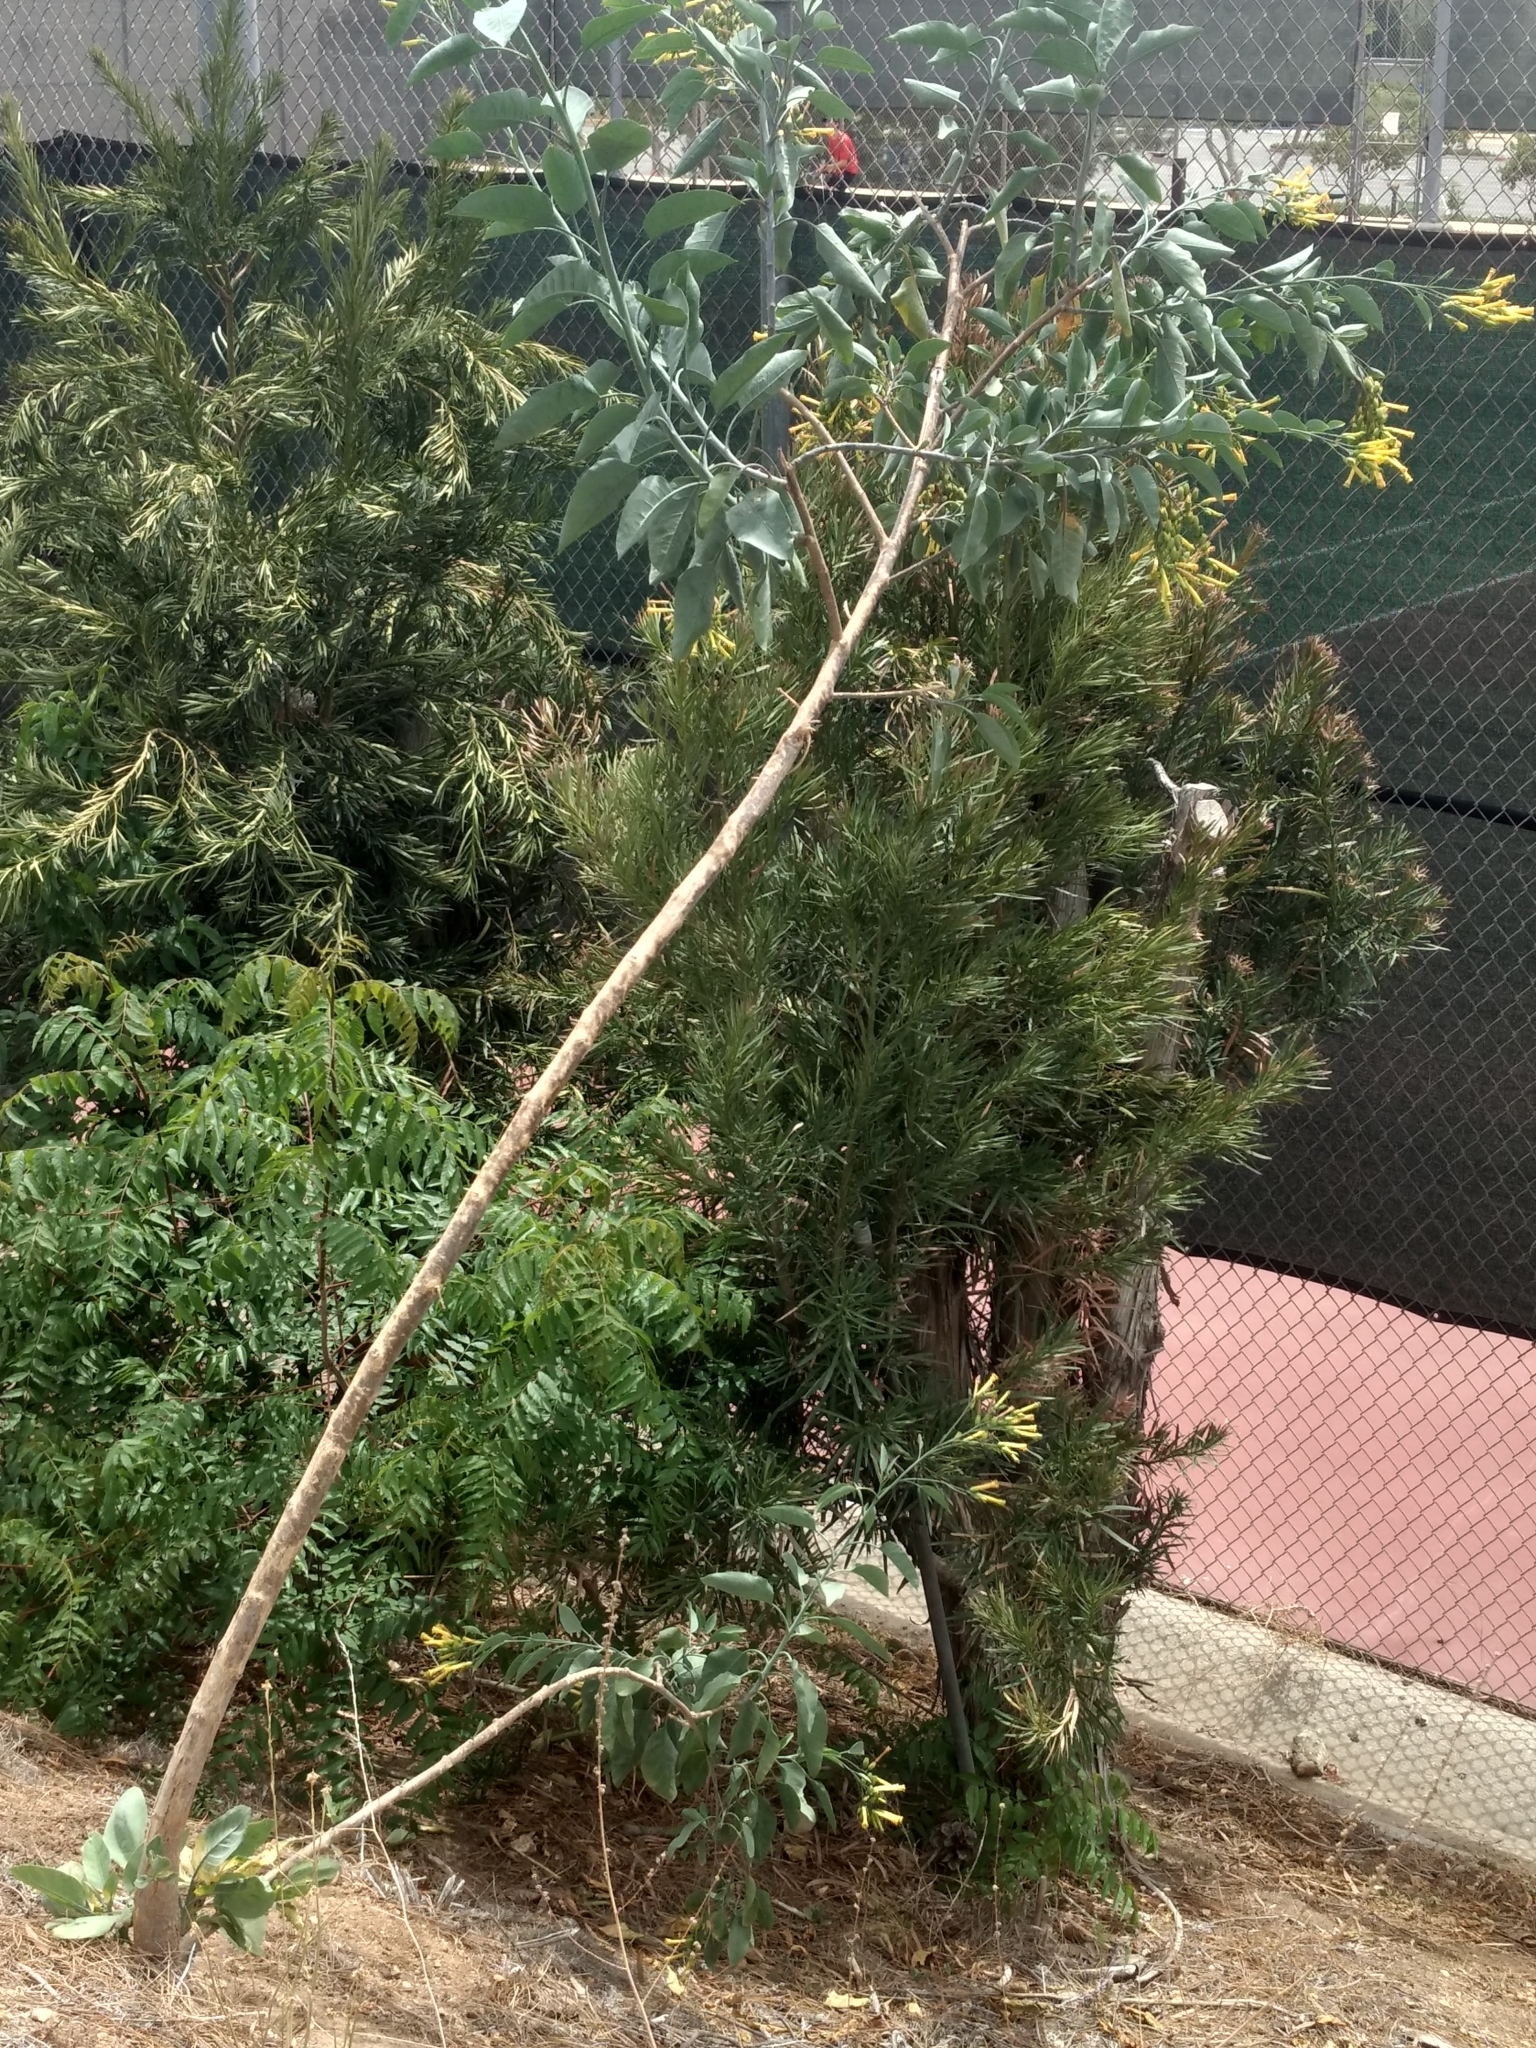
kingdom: Plantae
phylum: Tracheophyta
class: Magnoliopsida
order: Solanales
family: Solanaceae
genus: Nicotiana
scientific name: Nicotiana glauca
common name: Tree tobacco
